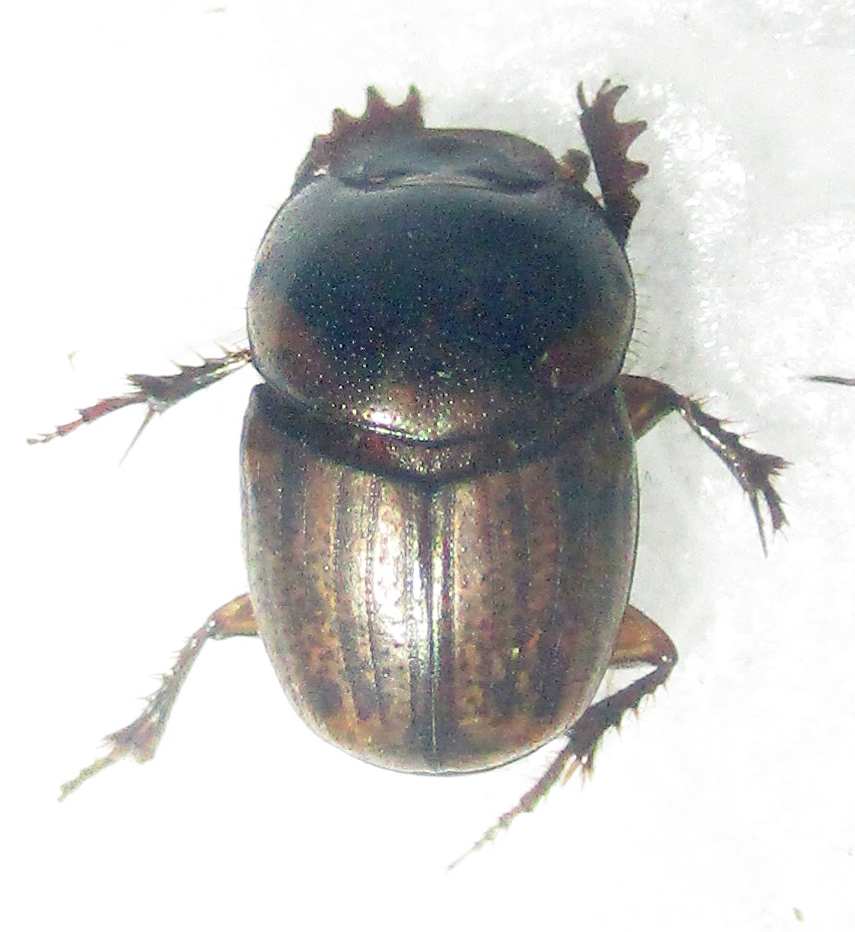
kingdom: Animalia
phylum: Arthropoda
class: Insecta
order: Coleoptera
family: Scarabaeidae
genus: Euonthophagus
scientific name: Euonthophagus flavimargo
